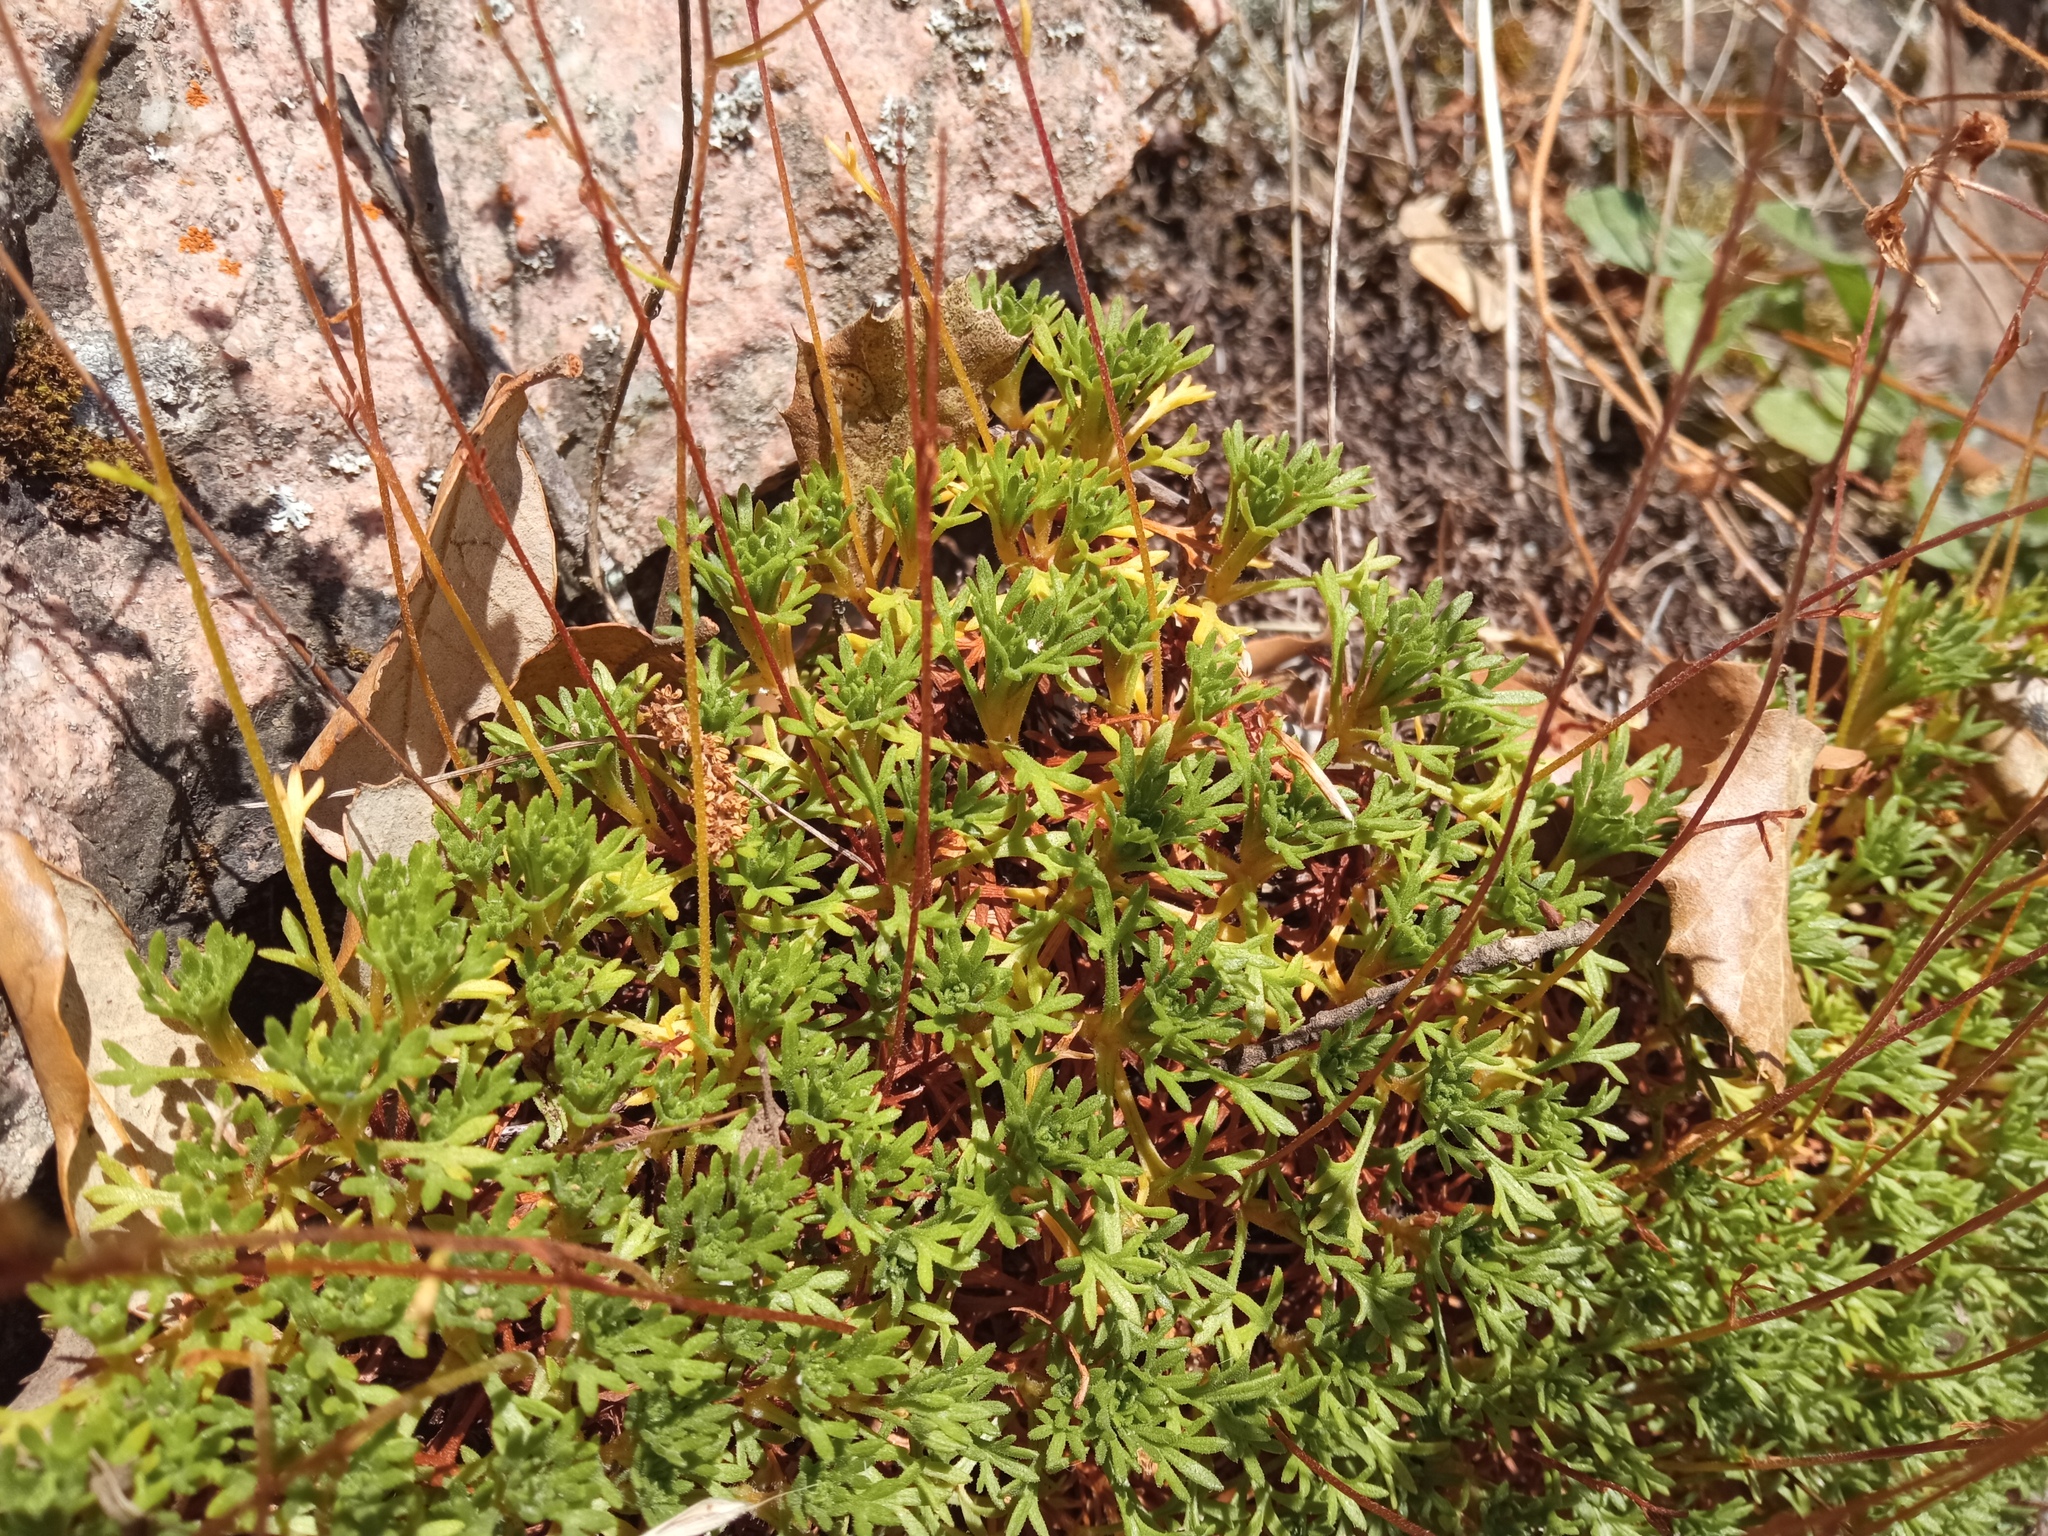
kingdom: Plantae
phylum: Tracheophyta
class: Magnoliopsida
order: Saxifragales
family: Saxifragaceae
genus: Saxifraga
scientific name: Saxifraga vayredana
